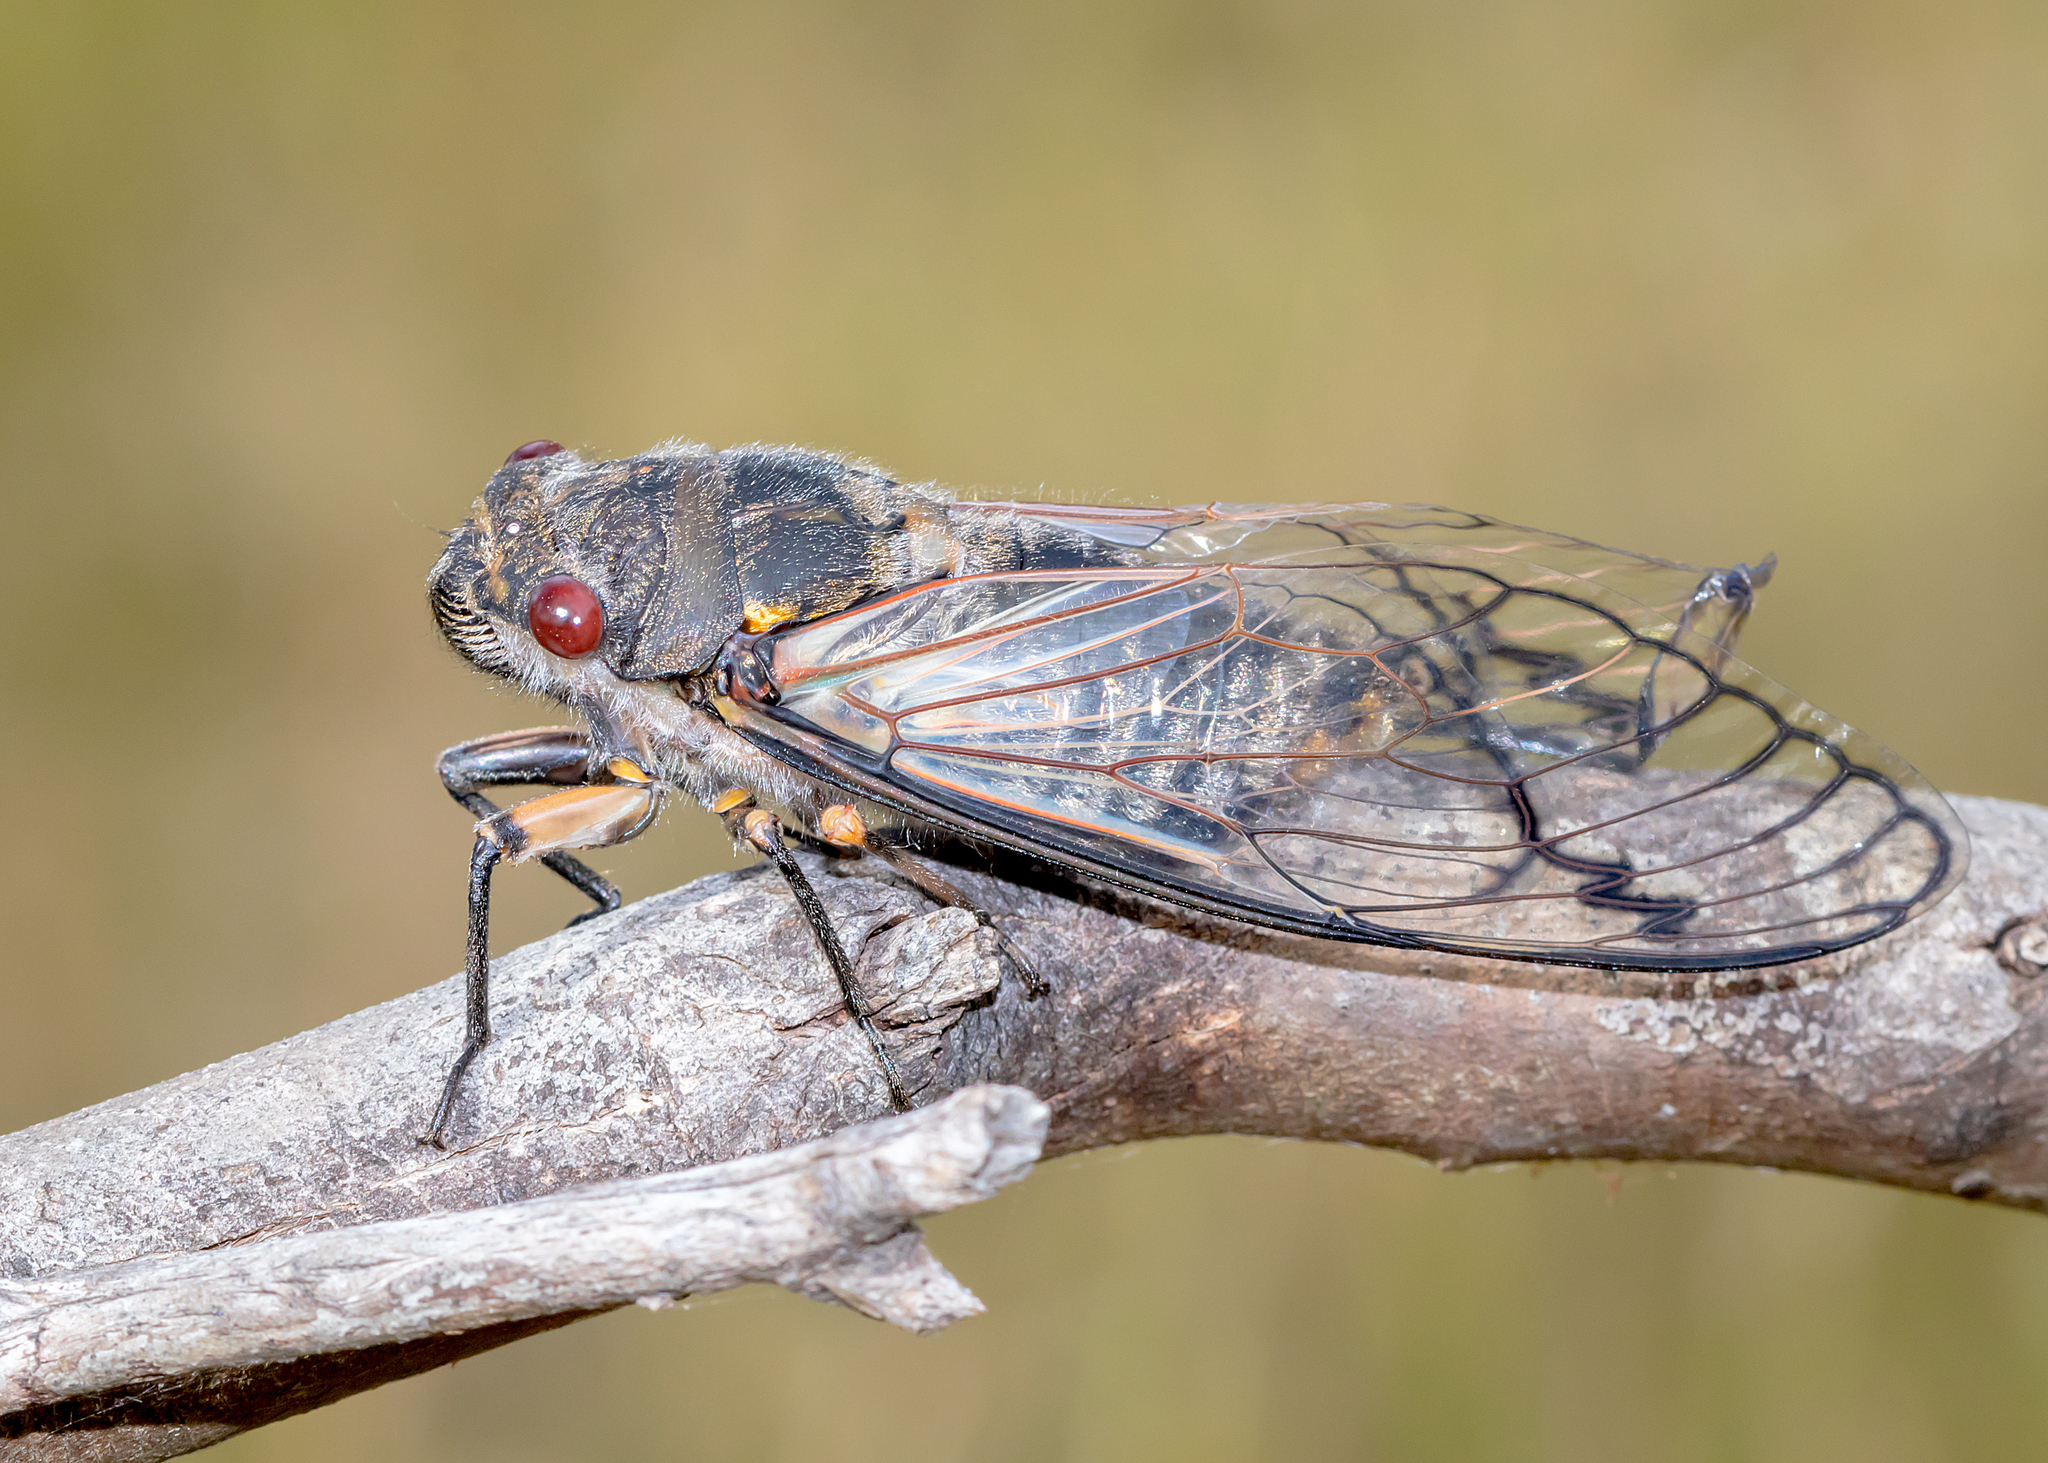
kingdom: Animalia
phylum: Arthropoda
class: Insecta
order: Hemiptera
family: Cicadidae
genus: Psaltoda
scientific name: Psaltoda moerens
